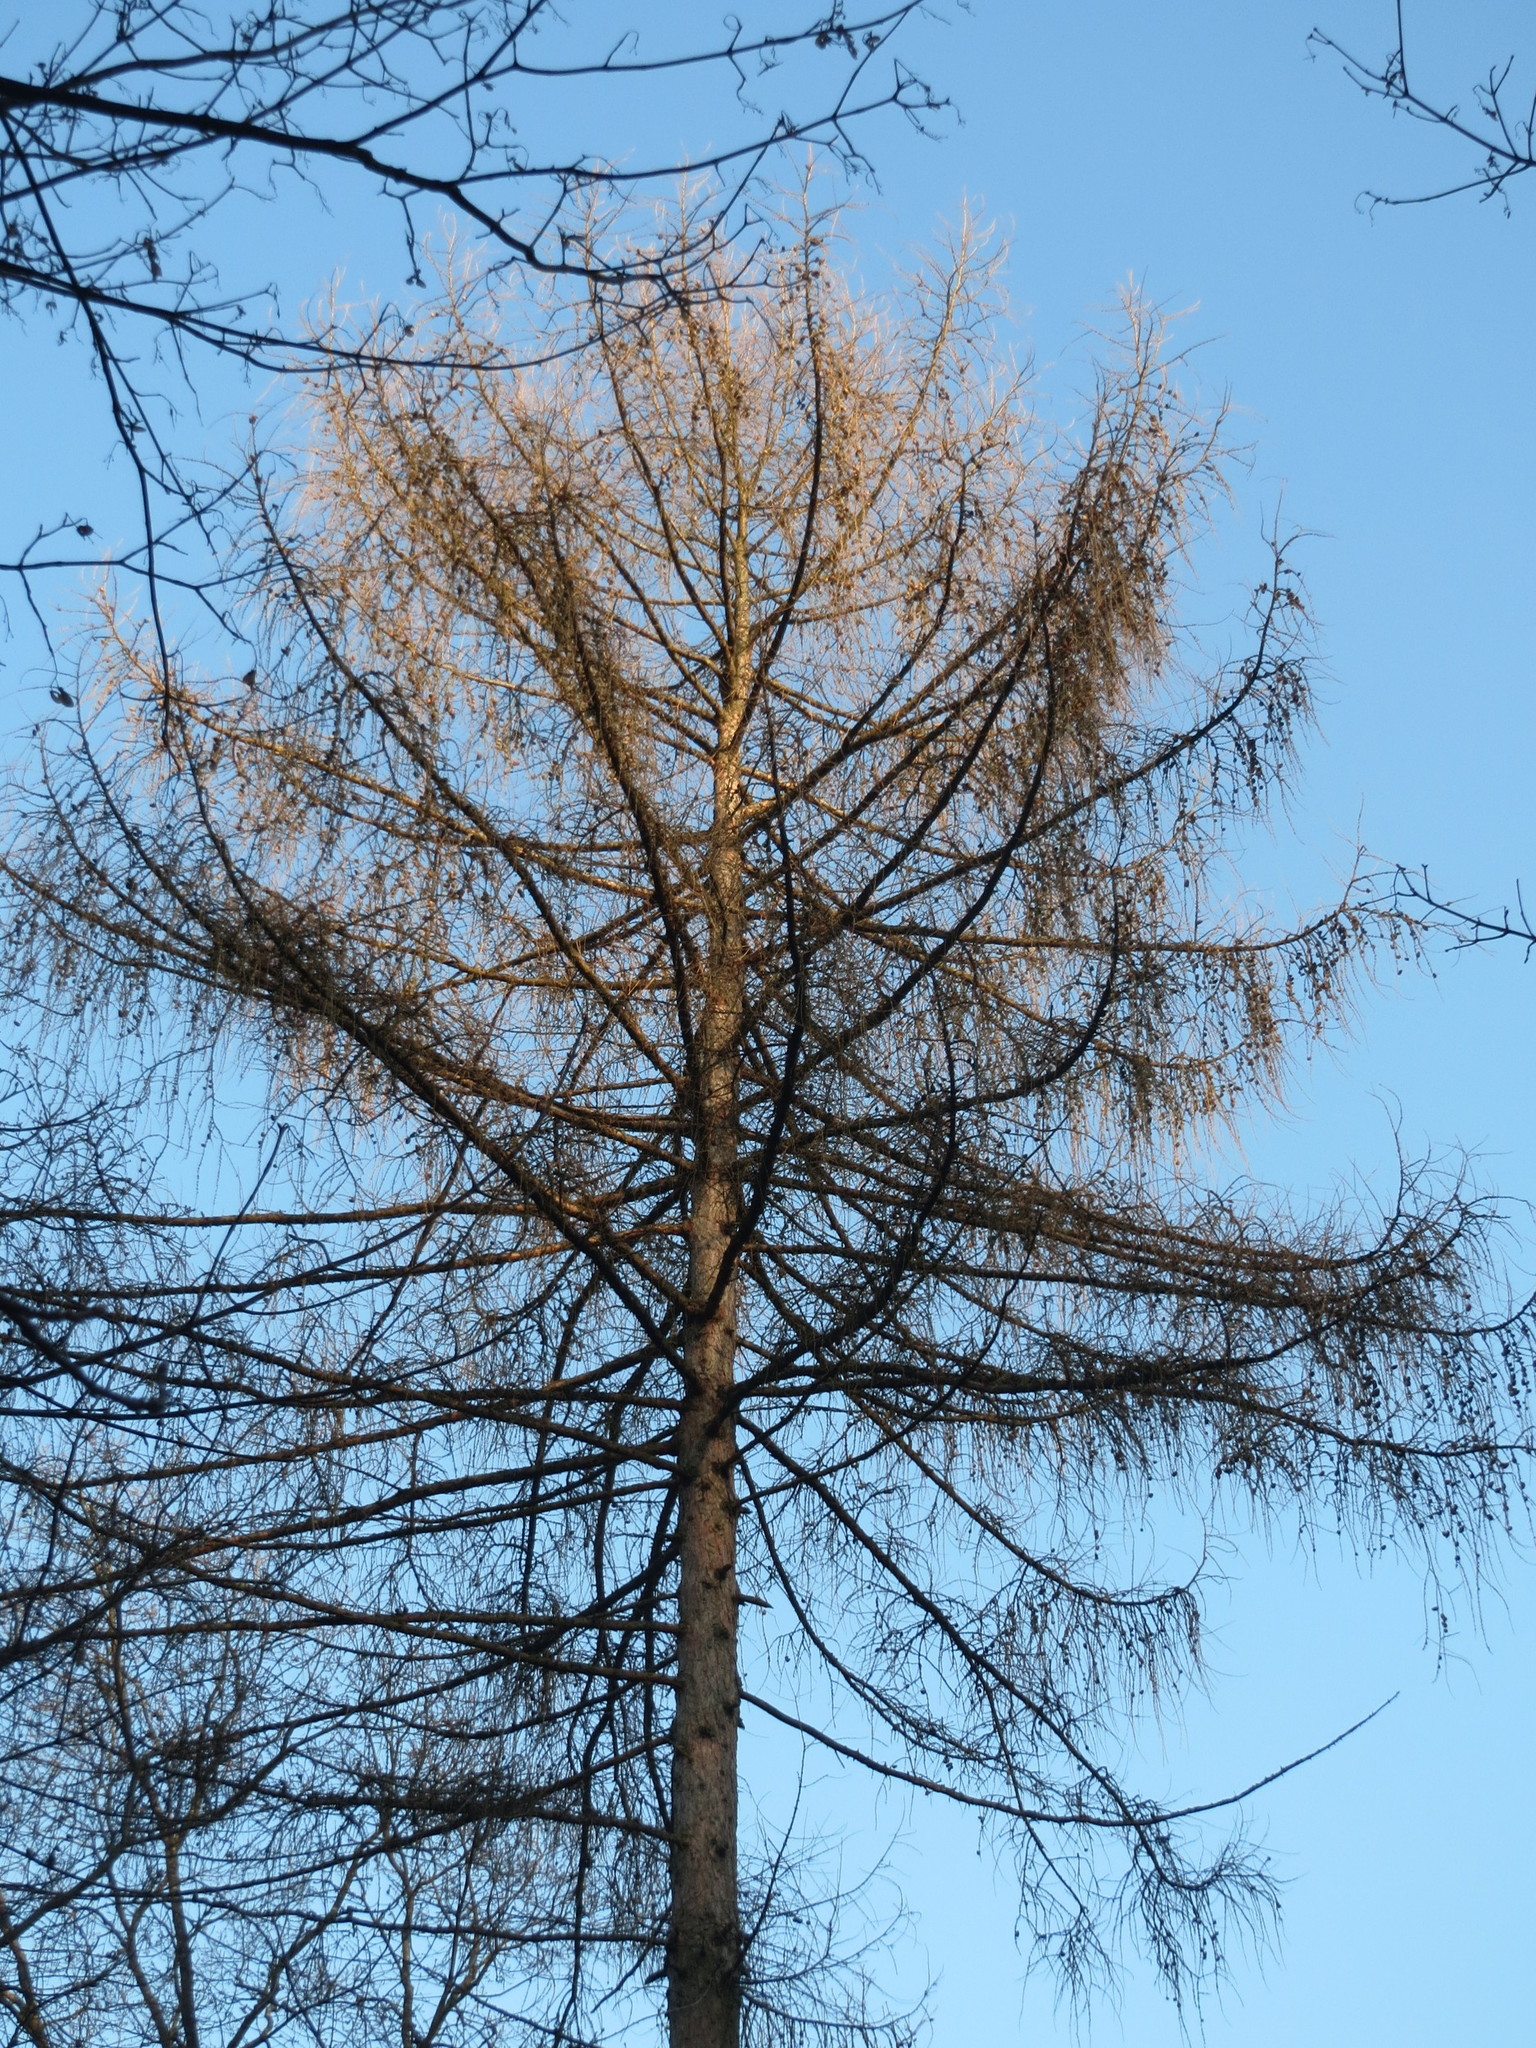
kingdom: Plantae
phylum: Tracheophyta
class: Pinopsida
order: Pinales
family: Pinaceae
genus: Larix
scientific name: Larix decidua
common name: European larch
